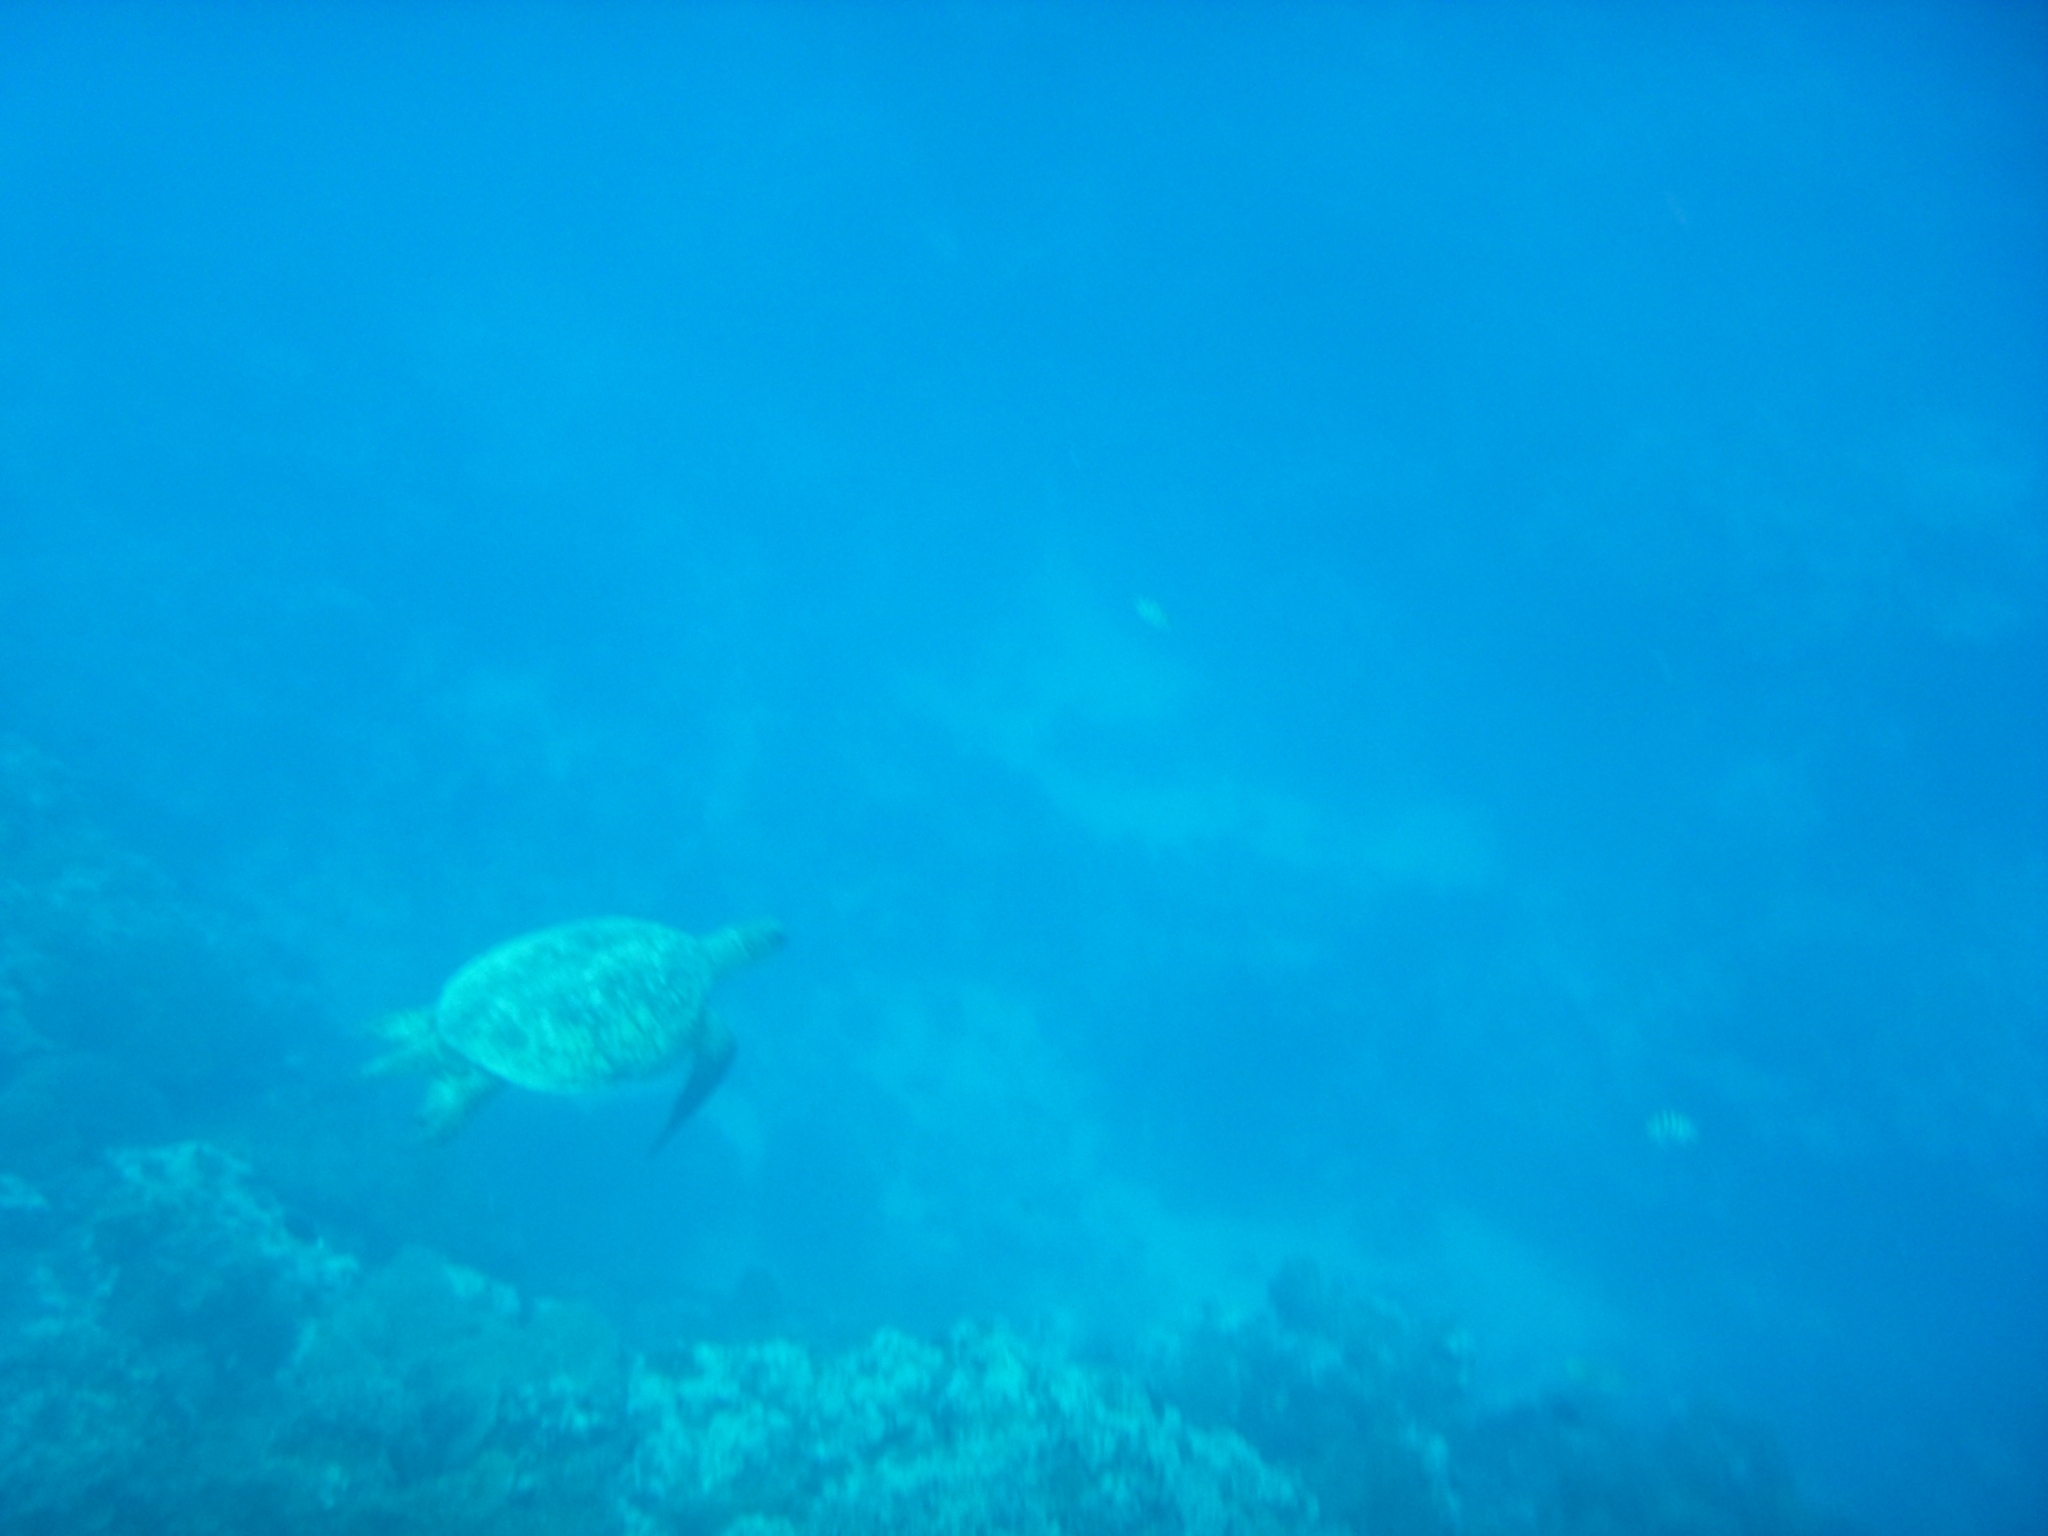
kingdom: Animalia
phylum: Chordata
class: Testudines
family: Cheloniidae
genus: Chelonia
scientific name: Chelonia mydas
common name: Green turtle
